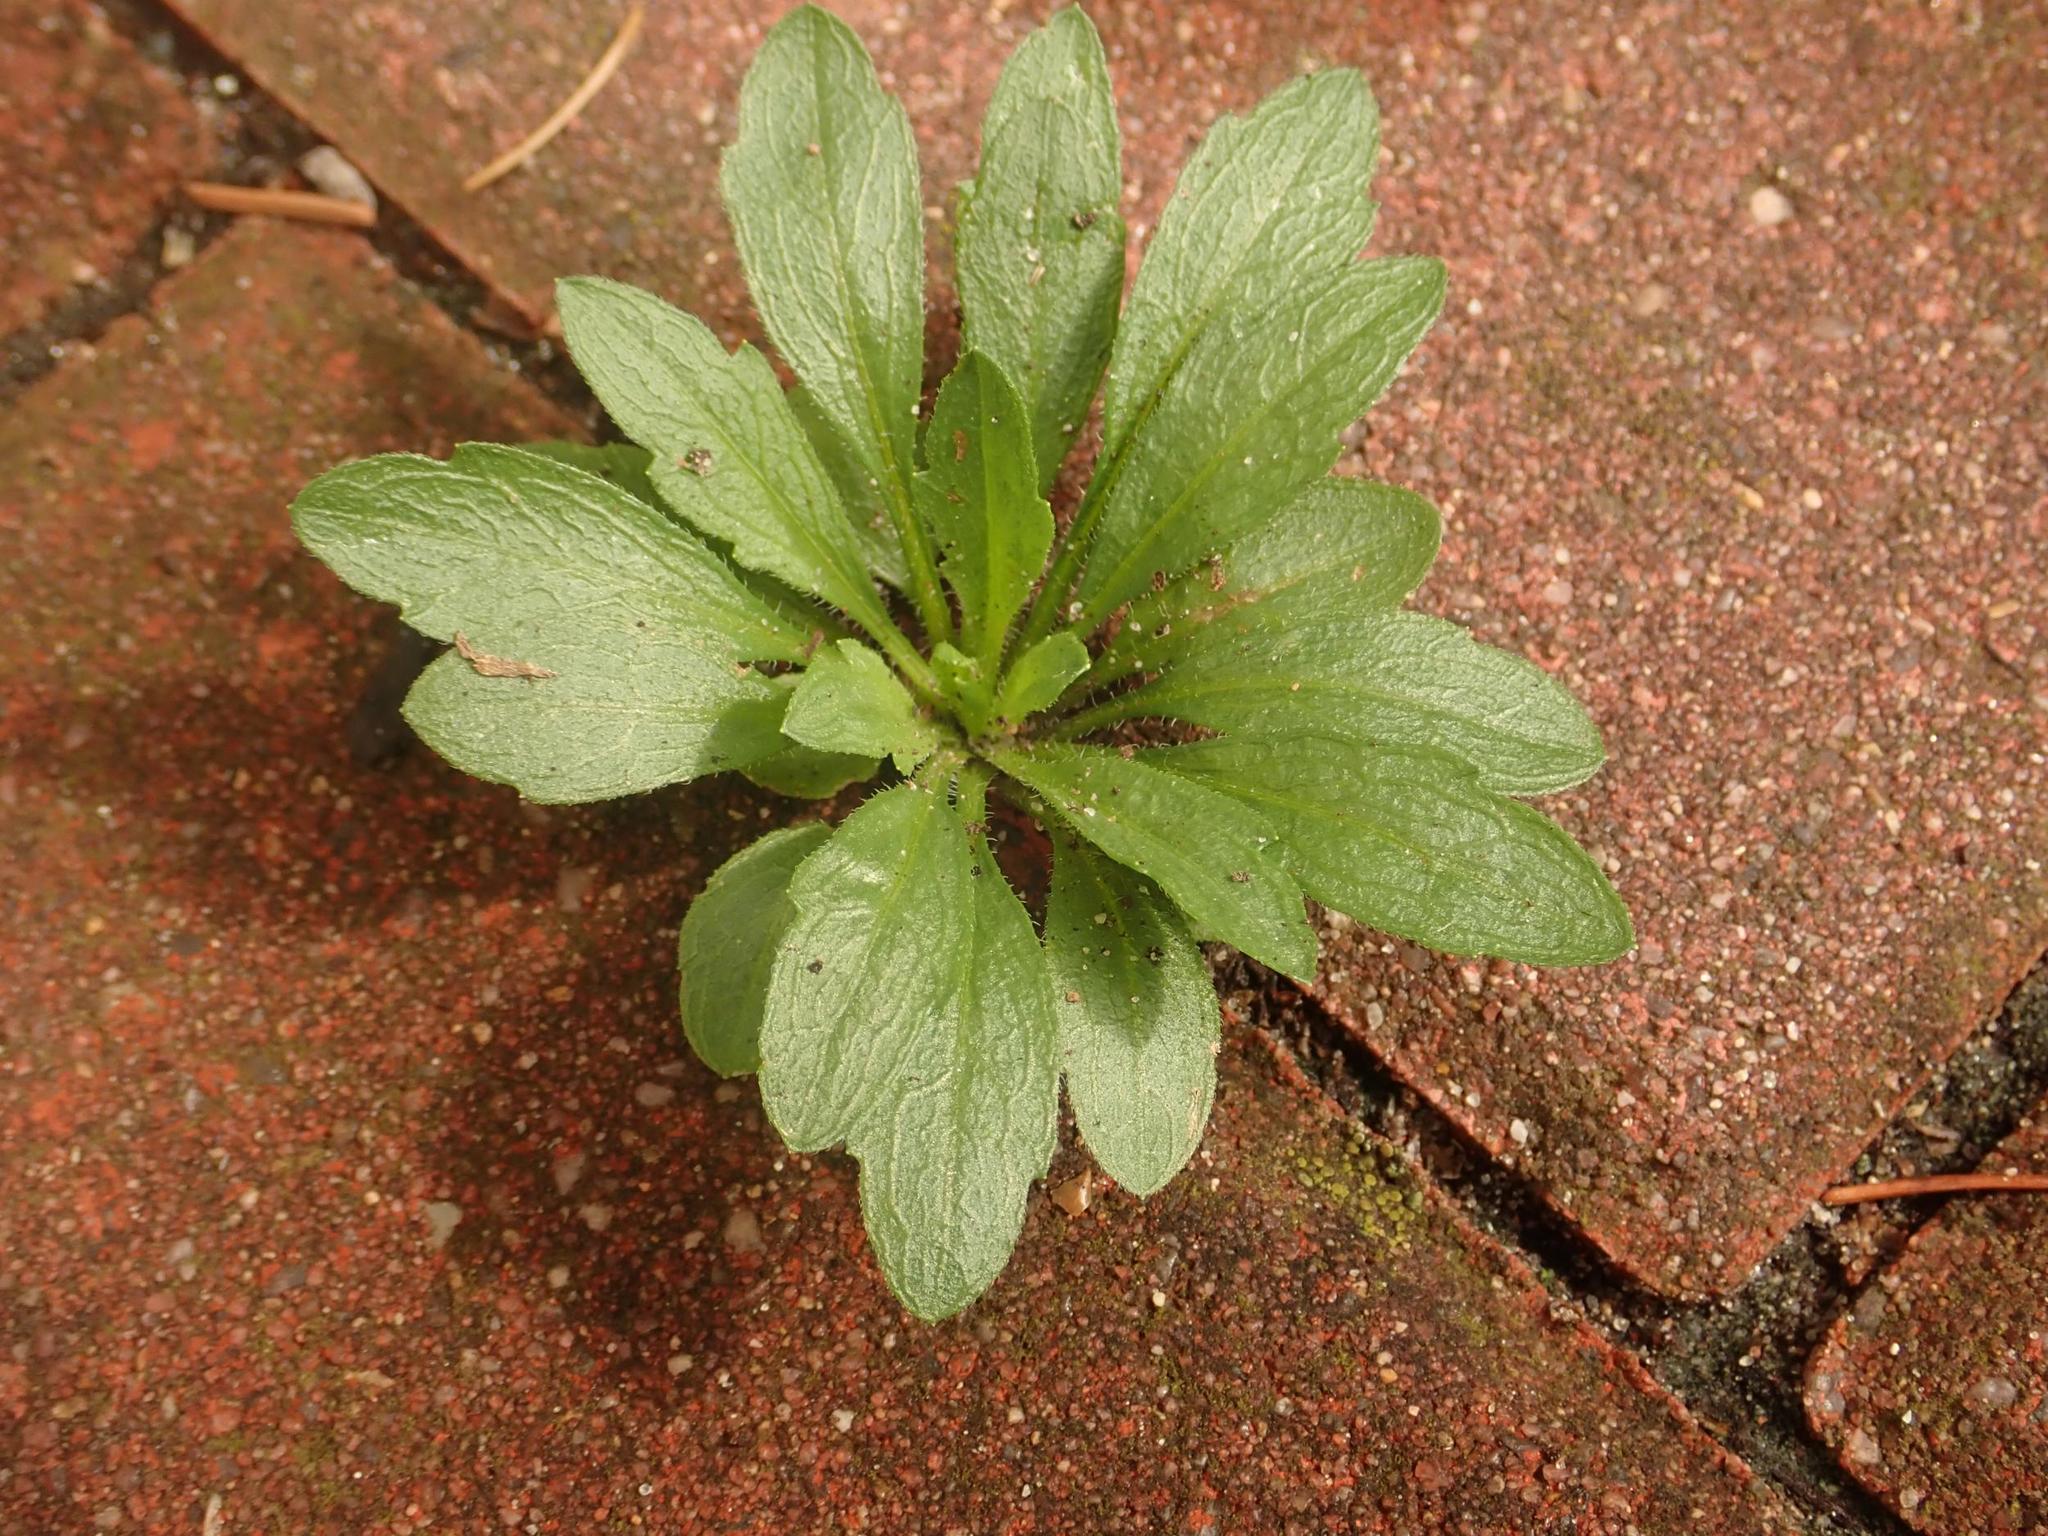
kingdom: Plantae
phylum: Tracheophyta
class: Magnoliopsida
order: Asterales
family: Asteraceae
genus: Erigeron
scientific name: Erigeron canadensis
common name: Canadian fleabane
